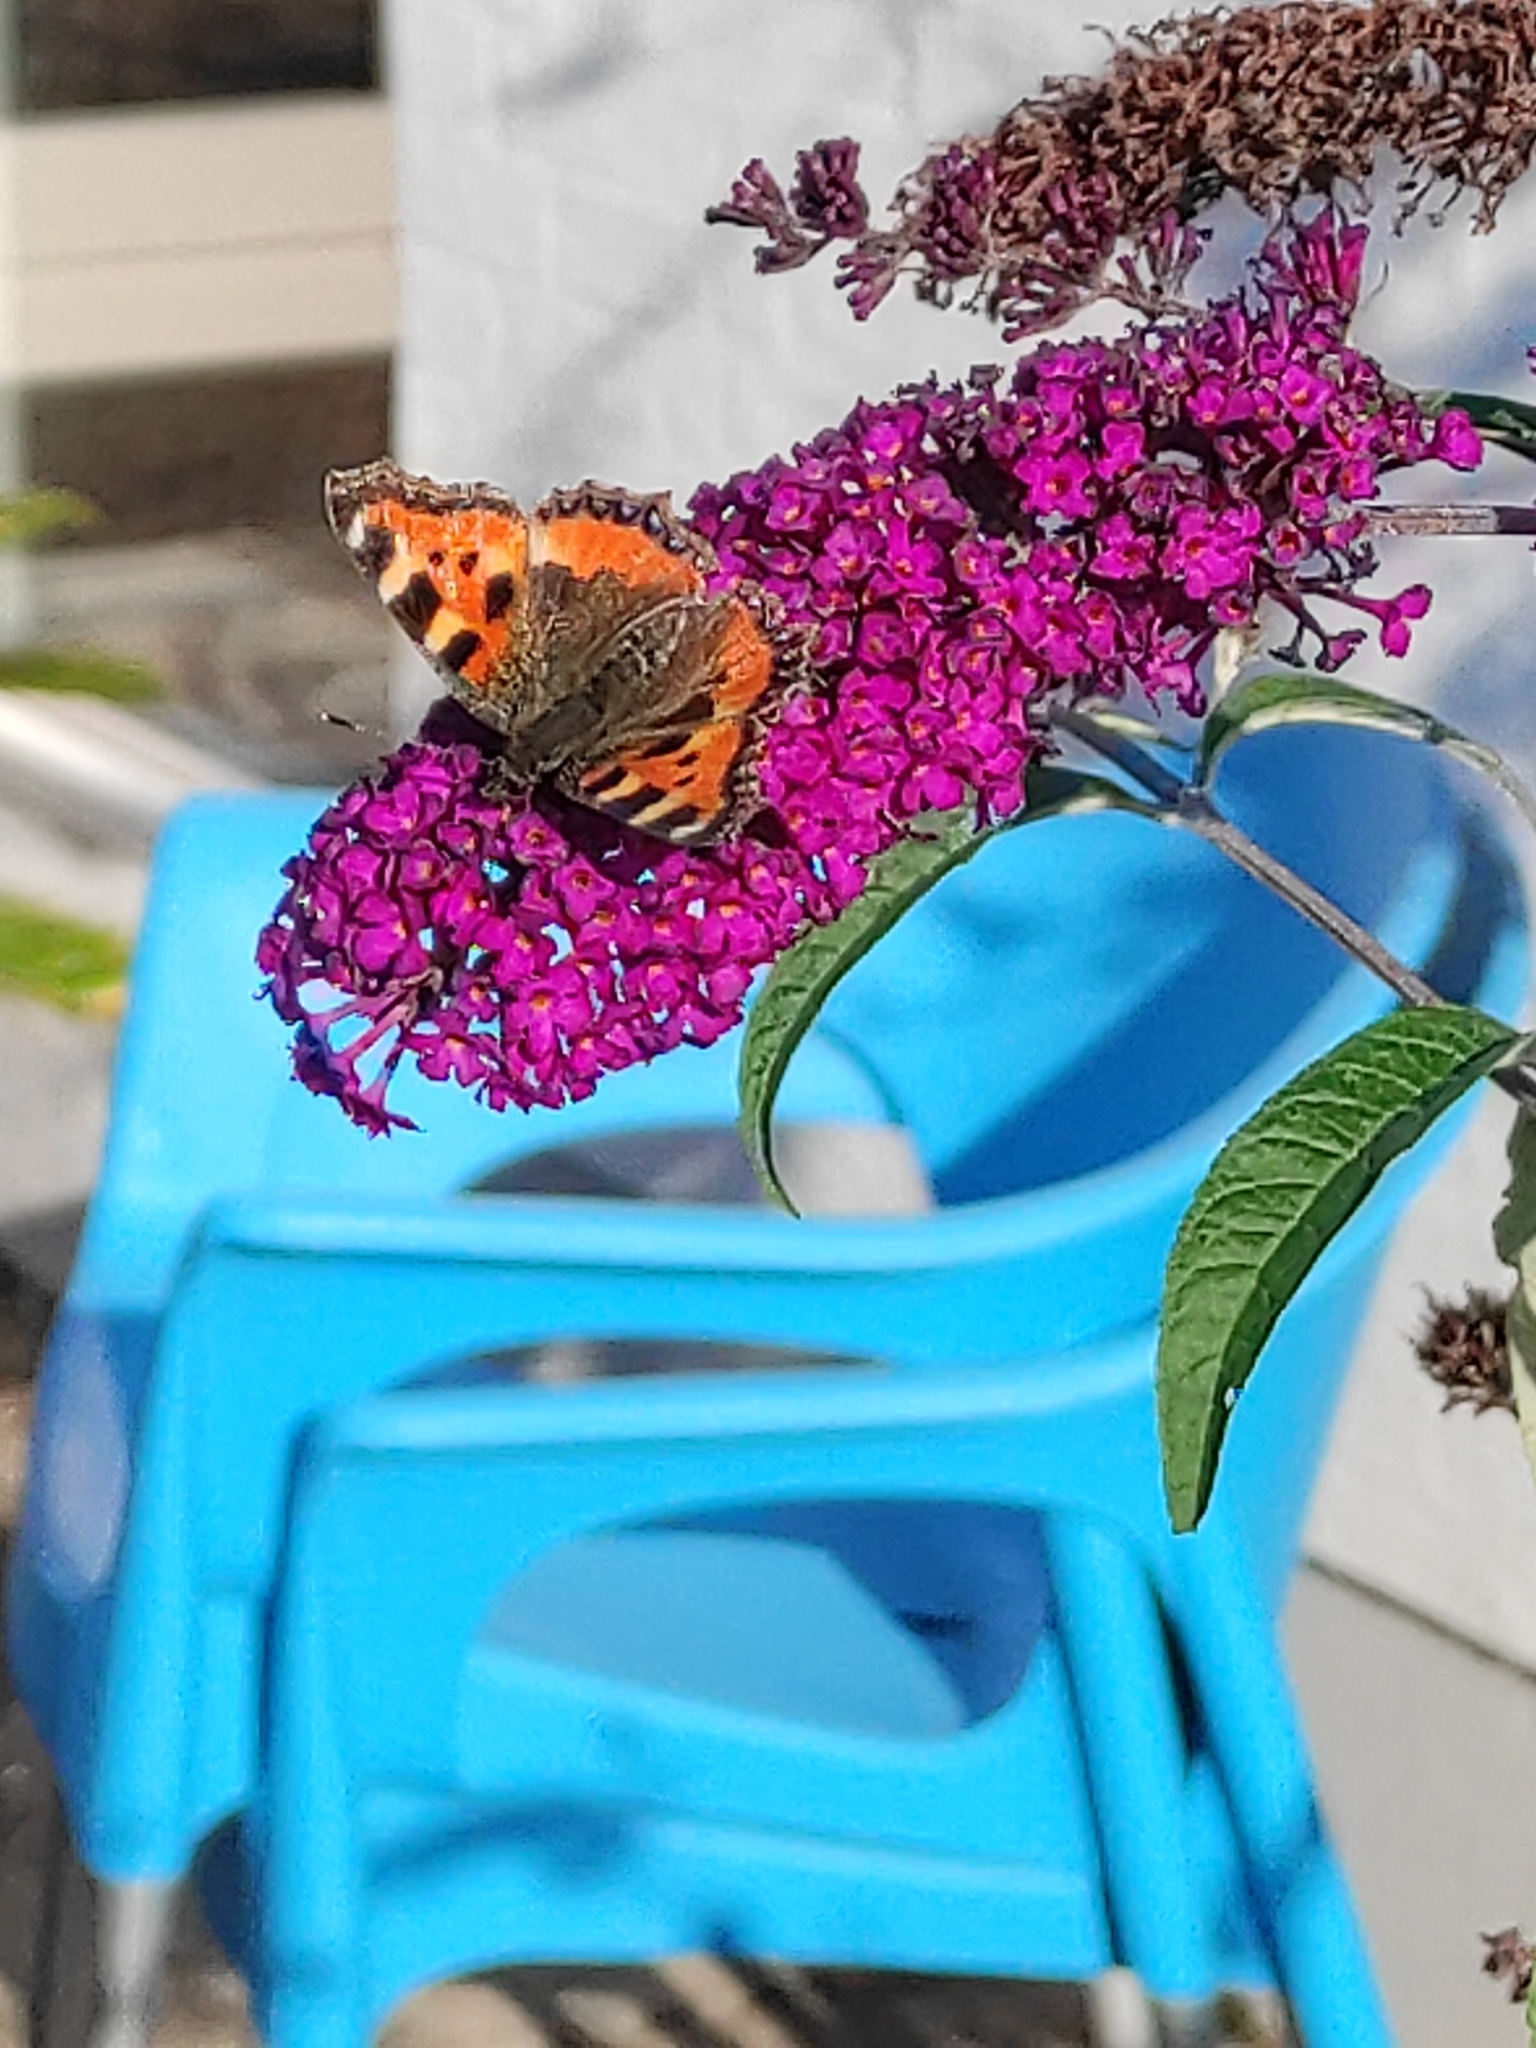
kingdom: Animalia
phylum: Arthropoda
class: Insecta
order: Lepidoptera
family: Nymphalidae
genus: Aglais
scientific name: Aglais urticae
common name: Small tortoiseshell
